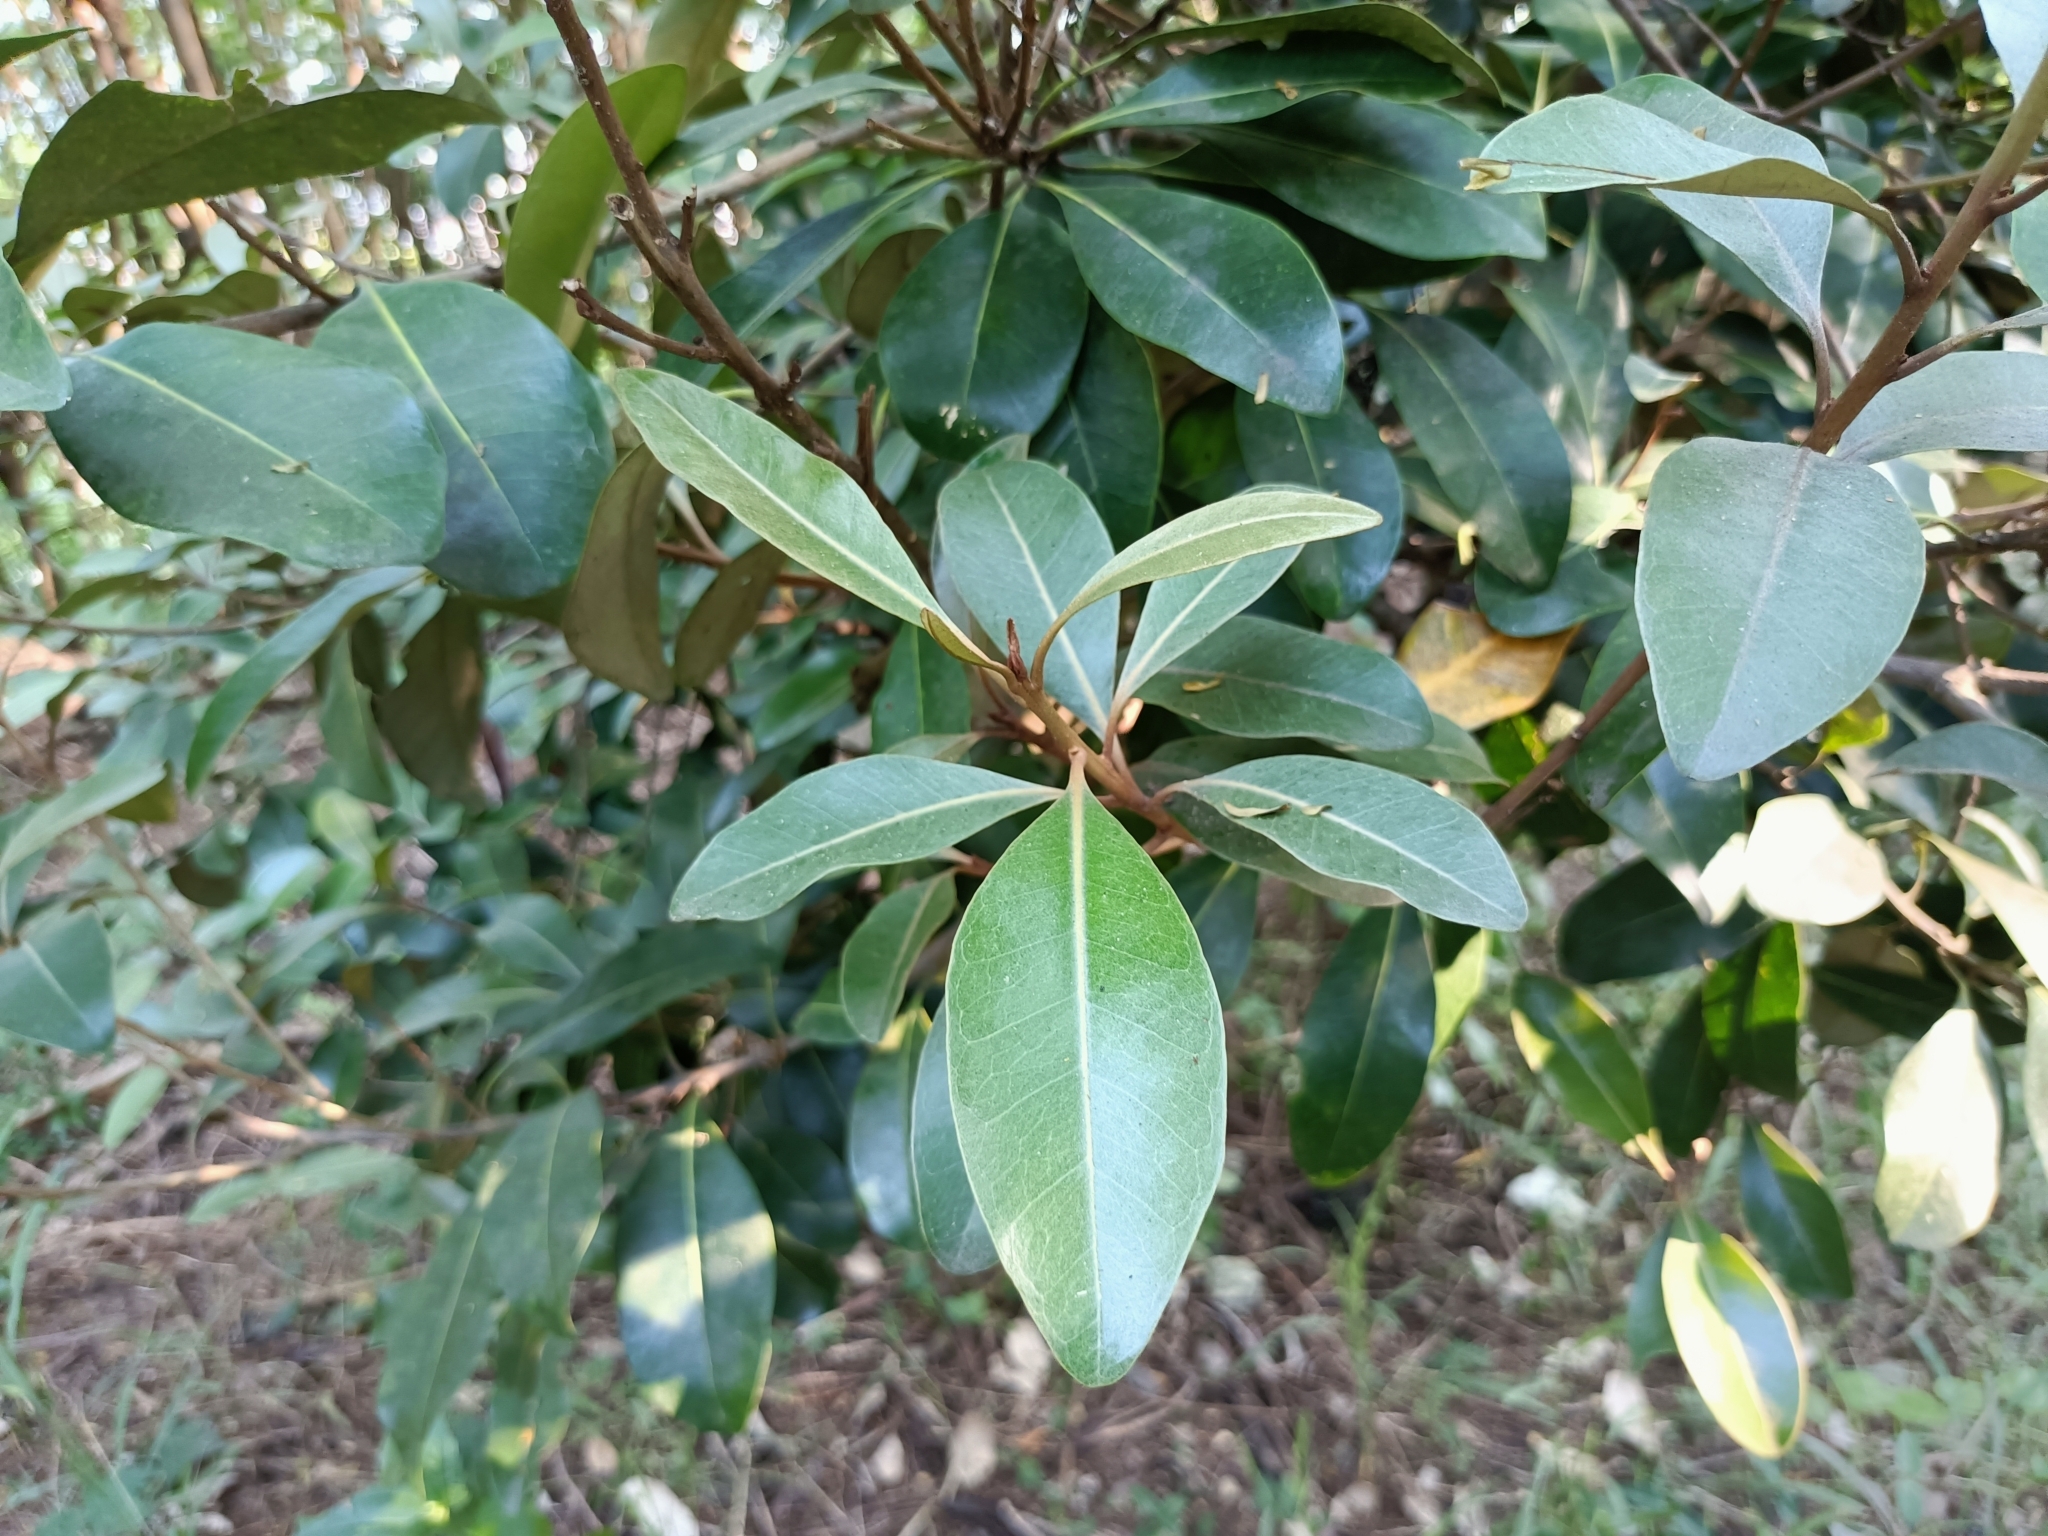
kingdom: Plantae
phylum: Tracheophyta
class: Magnoliopsida
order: Ericales
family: Sapotaceae
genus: Planchonella
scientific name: Planchonella obovata
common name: Black-ash
